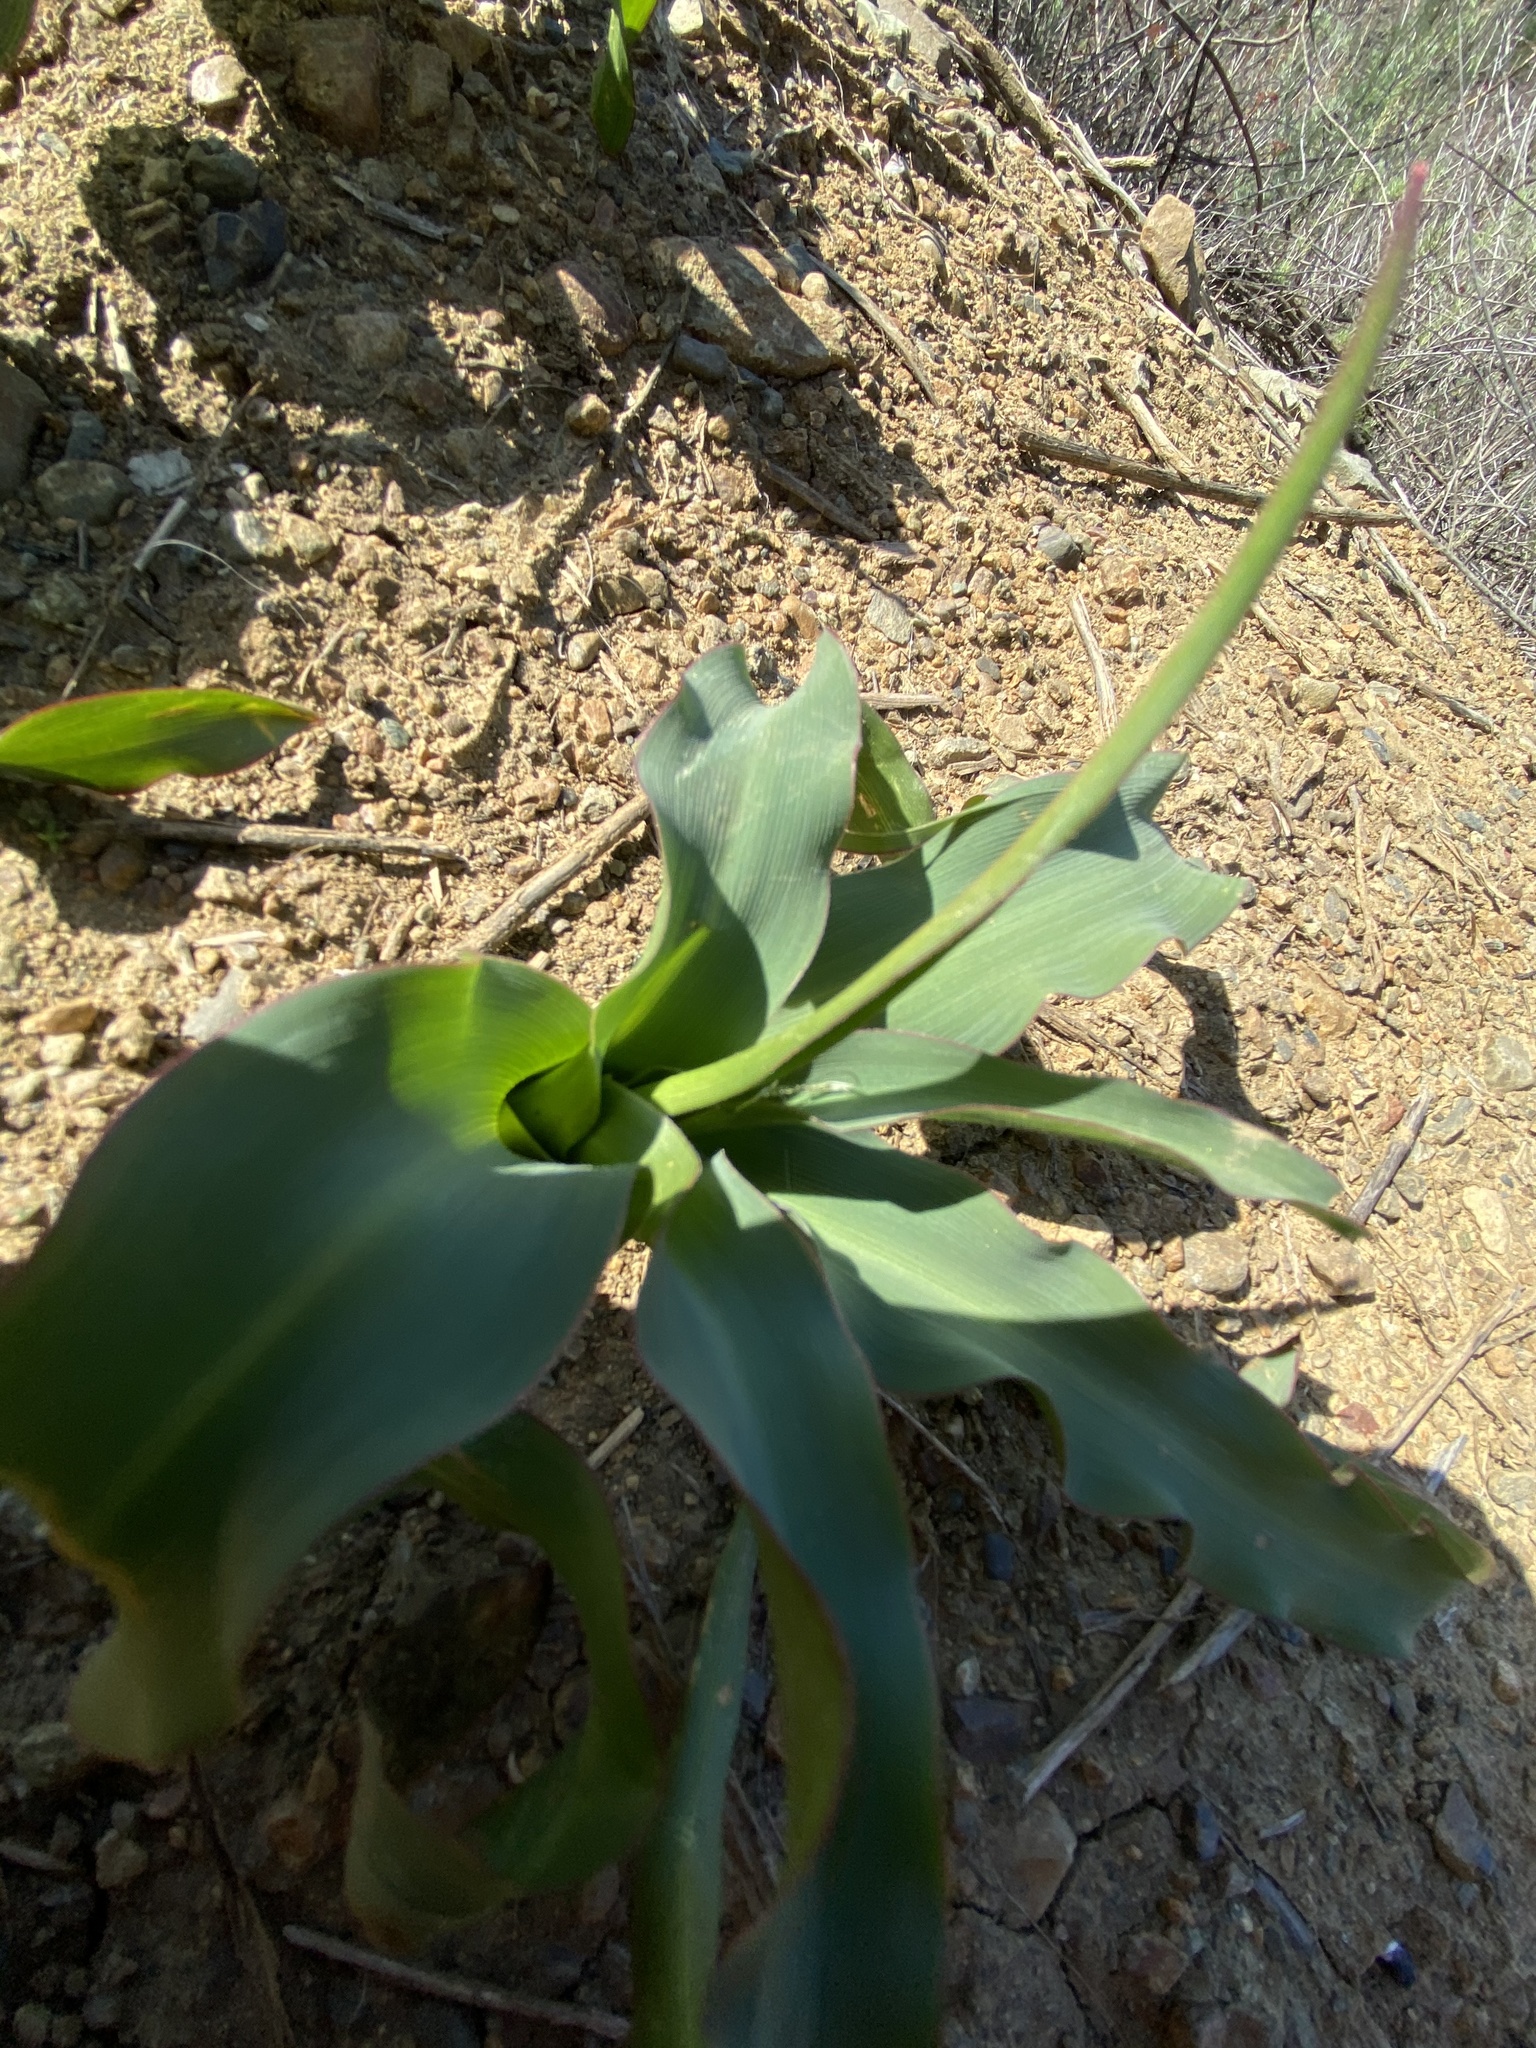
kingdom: Plantae
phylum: Tracheophyta
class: Liliopsida
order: Asparagales
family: Asparagaceae
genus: Chlorogalum
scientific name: Chlorogalum pomeridianum
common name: Amole
